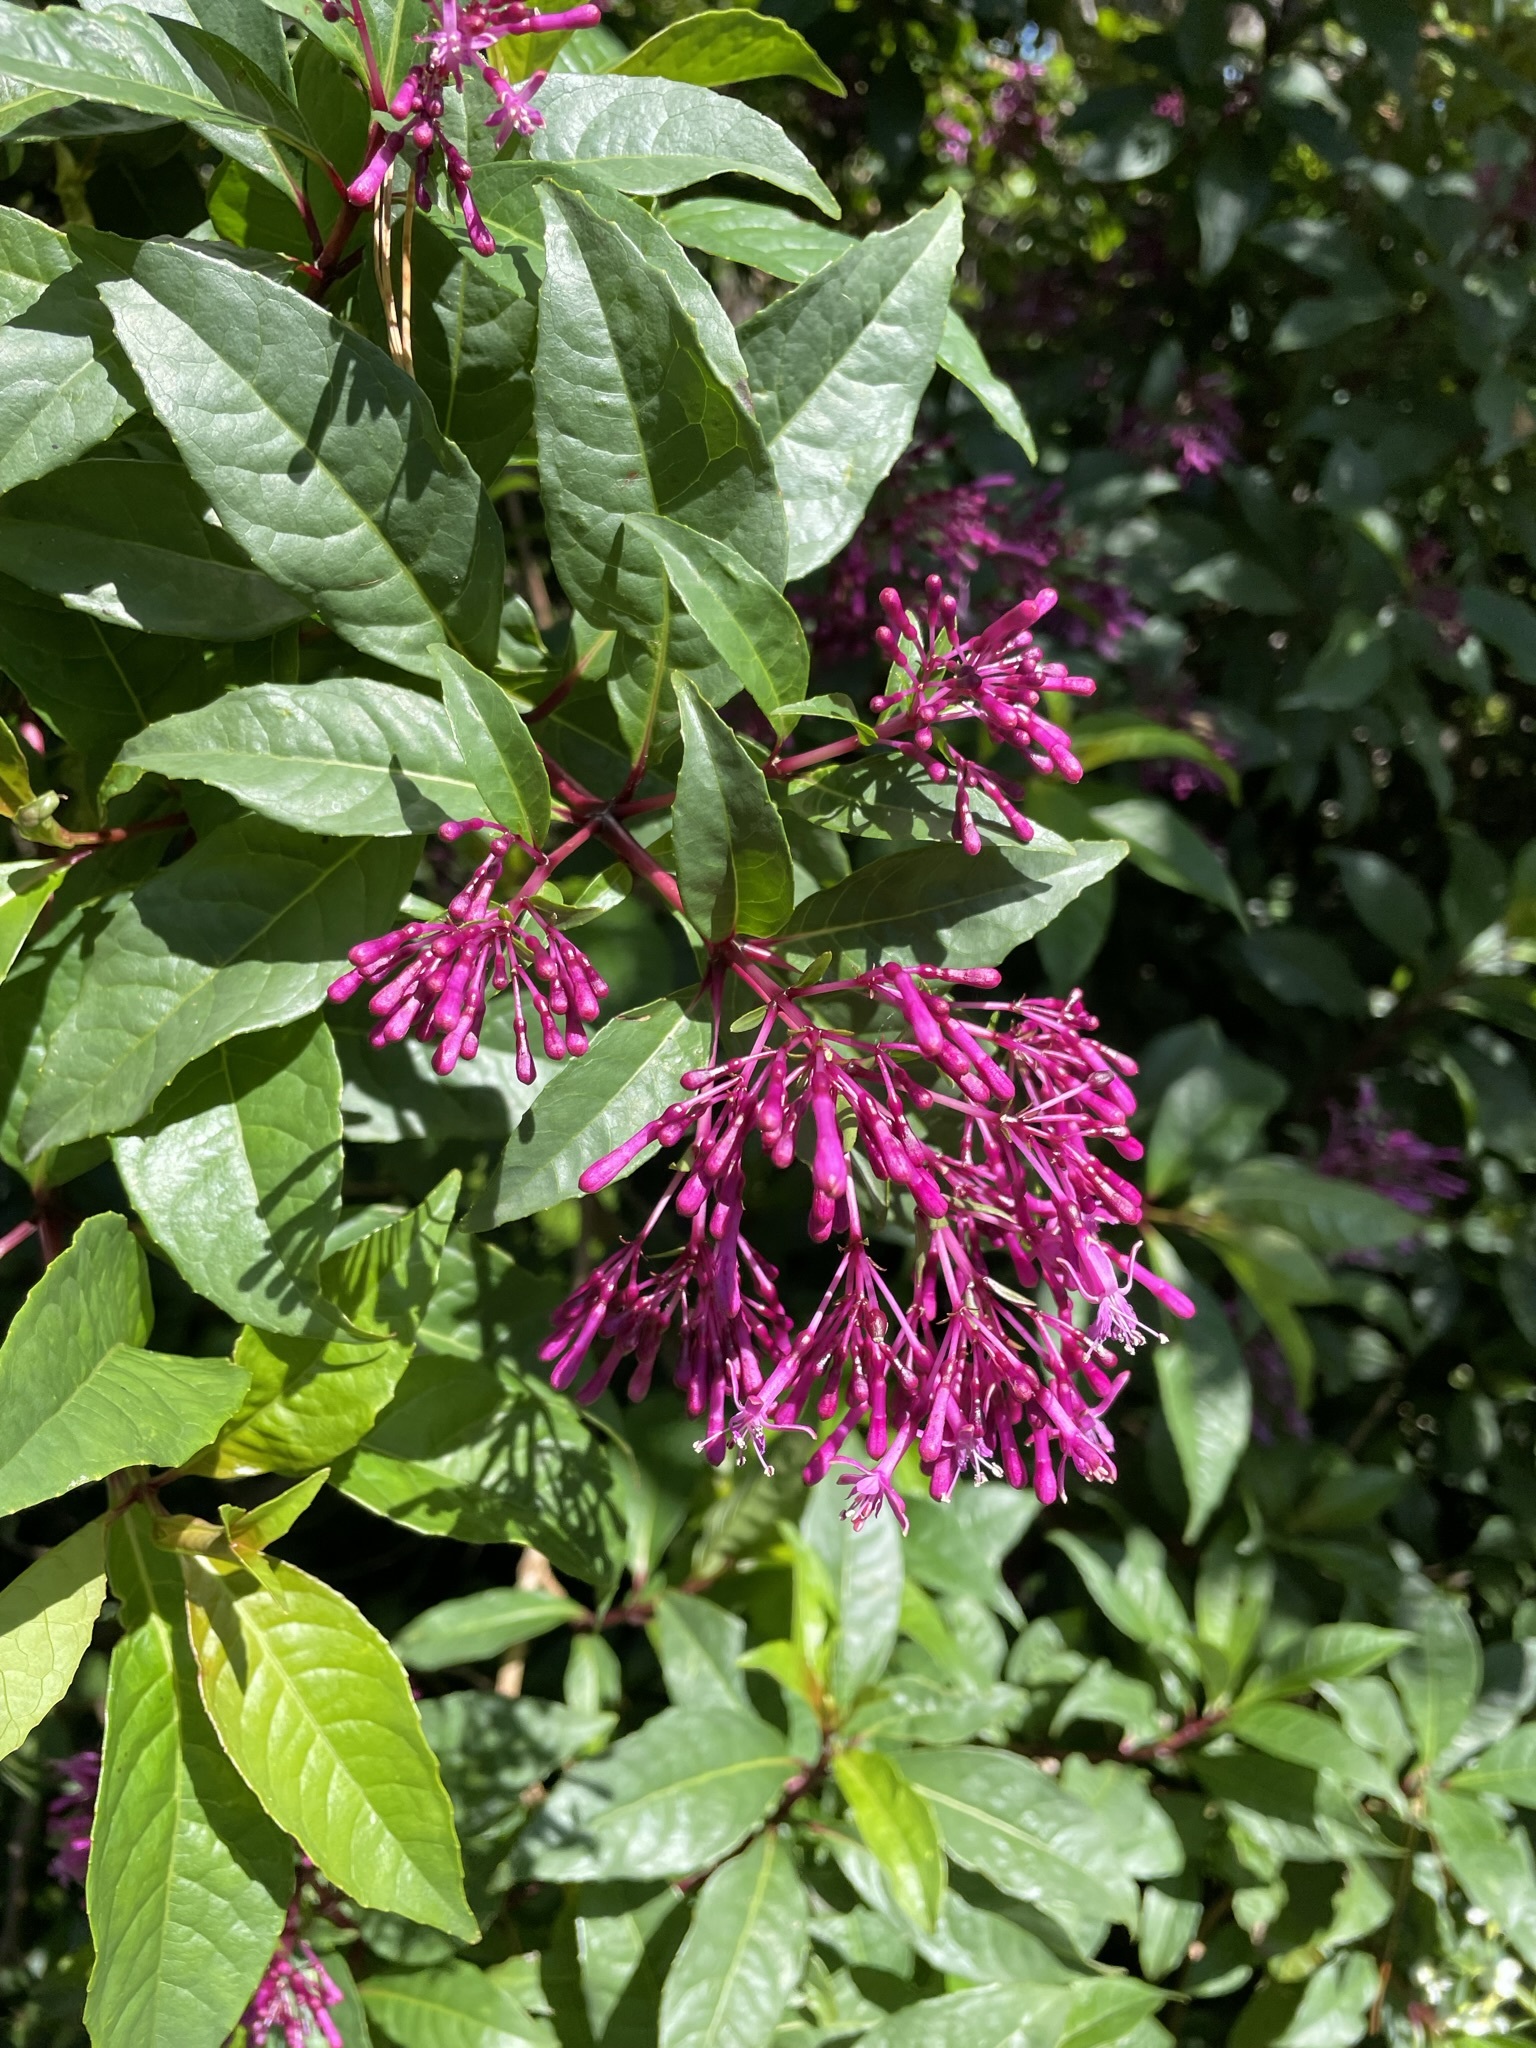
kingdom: Plantae
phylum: Tracheophyta
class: Magnoliopsida
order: Myrtales
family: Onagraceae
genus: Fuchsia
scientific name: Fuchsia paniculata
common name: Shrubby fuchsia
